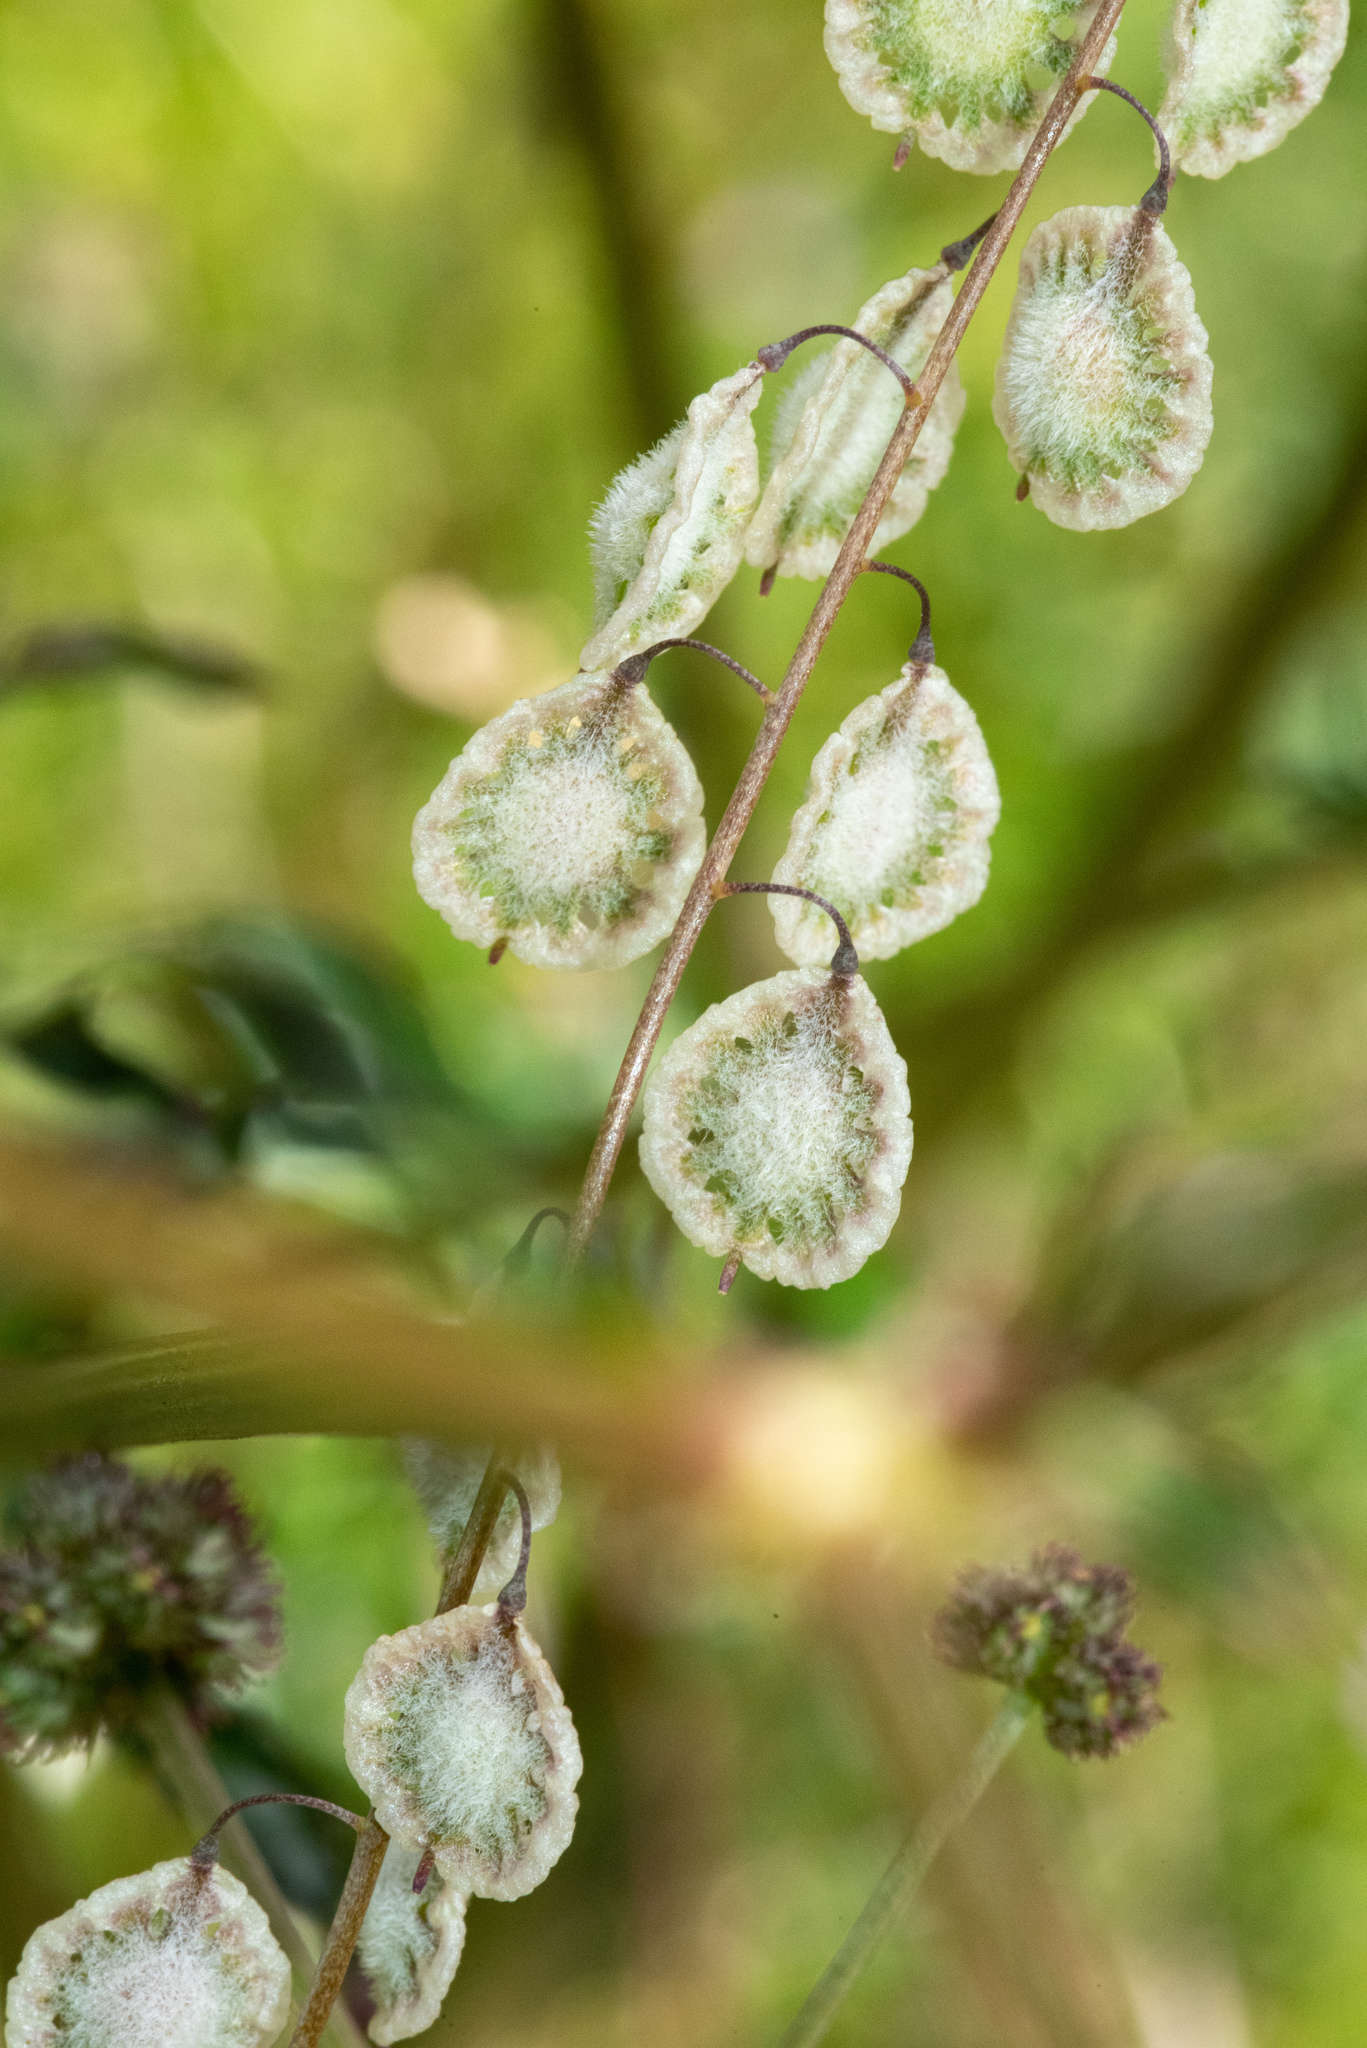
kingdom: Plantae
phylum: Tracheophyta
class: Magnoliopsida
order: Brassicales
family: Brassicaceae
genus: Thysanocarpus
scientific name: Thysanocarpus curvipes
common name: Sand fringepod
